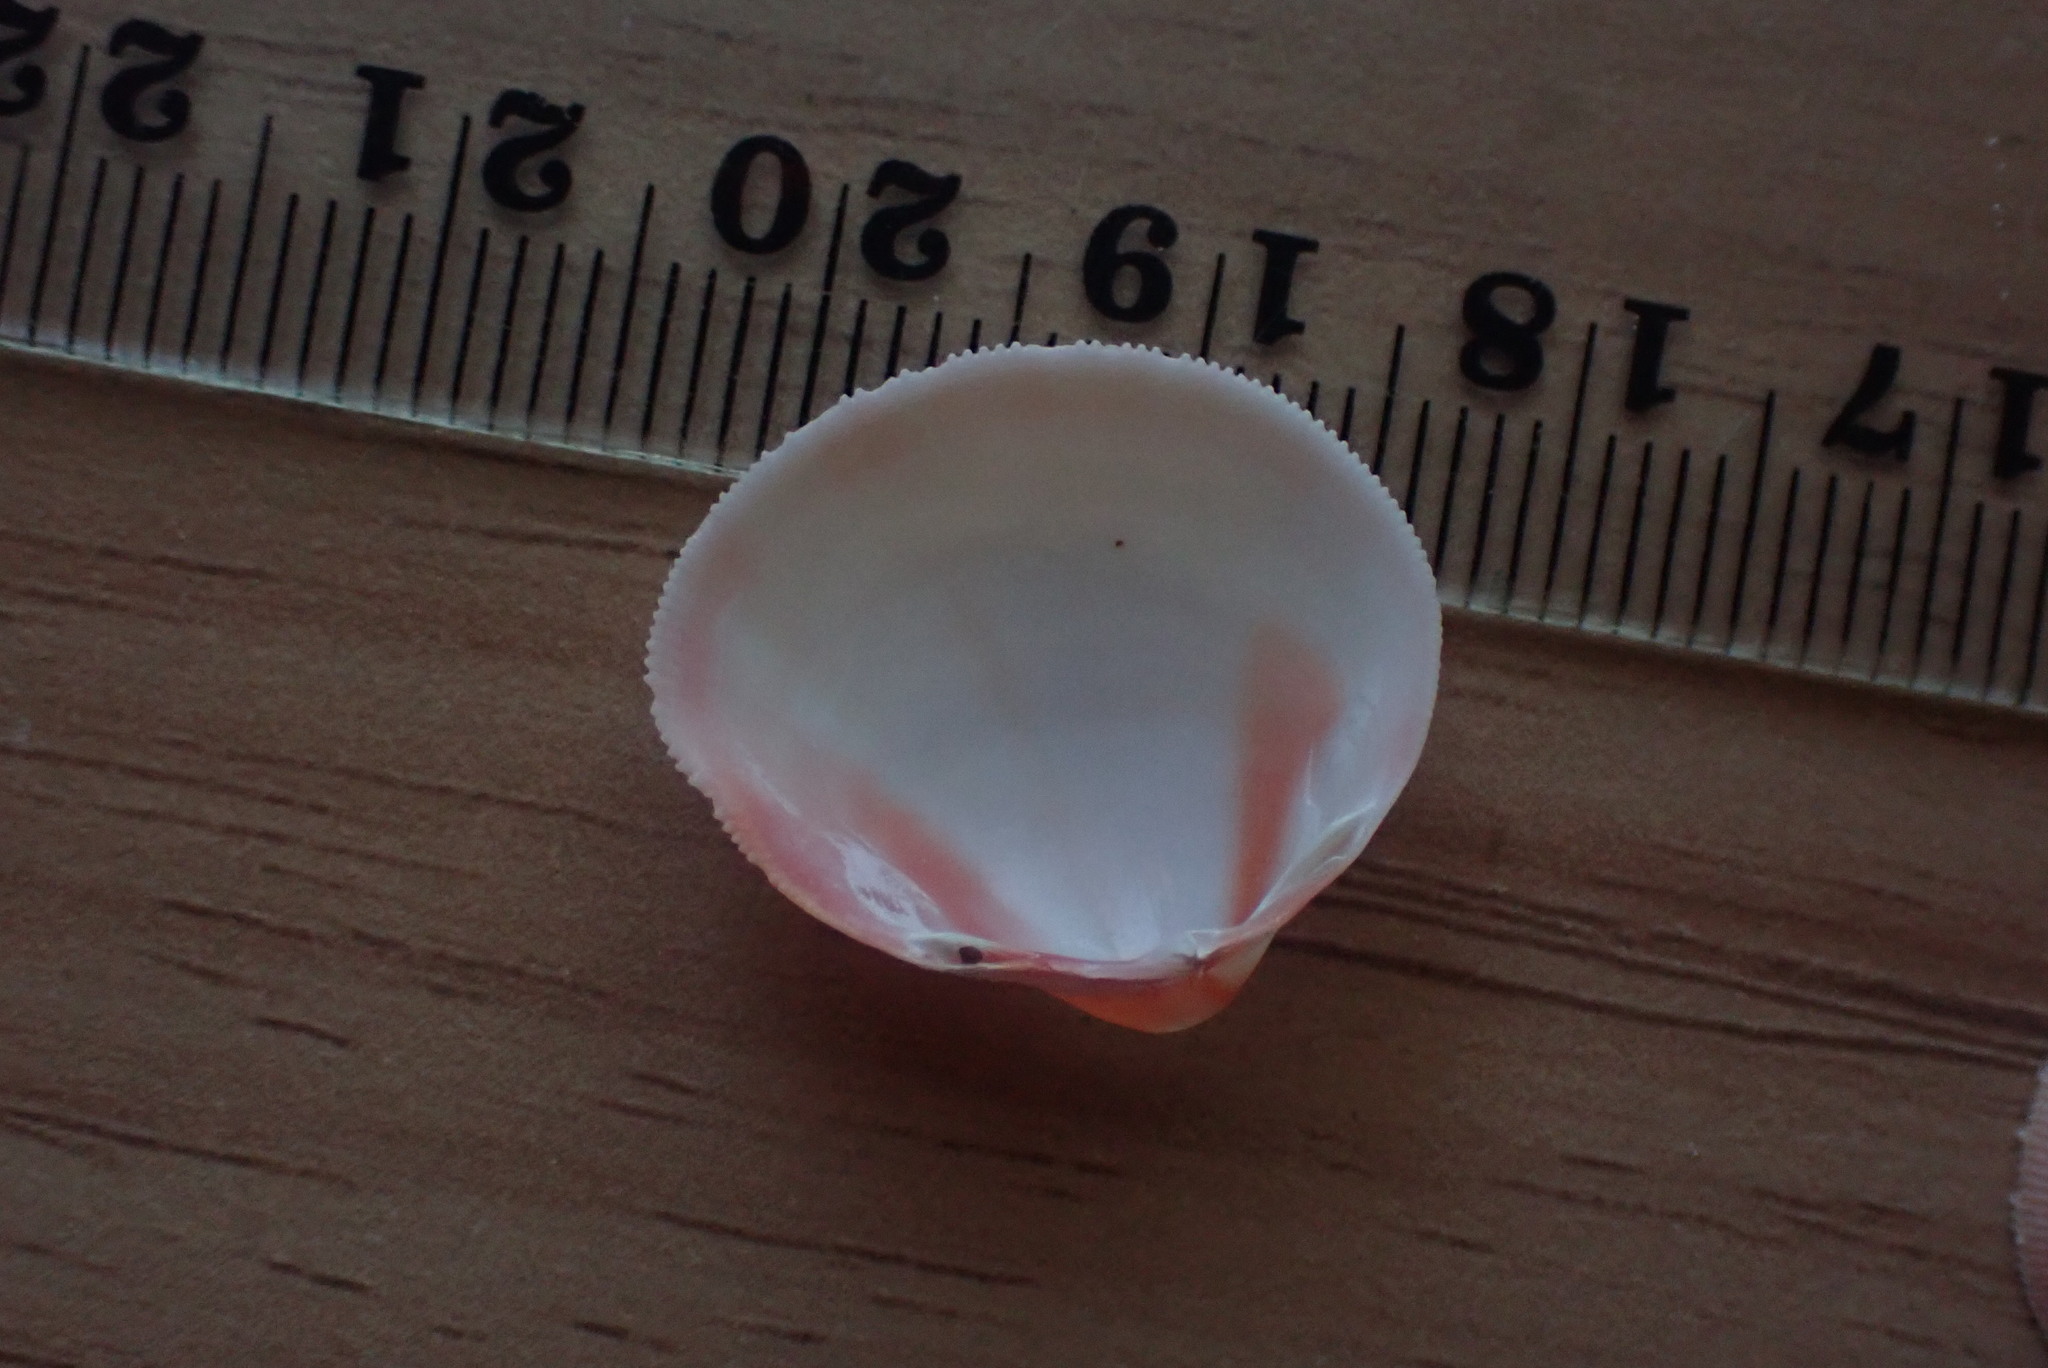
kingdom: Animalia
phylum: Mollusca
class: Bivalvia
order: Cardiida
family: Cardiidae
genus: Pratulum
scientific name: Pratulum pulchellum
